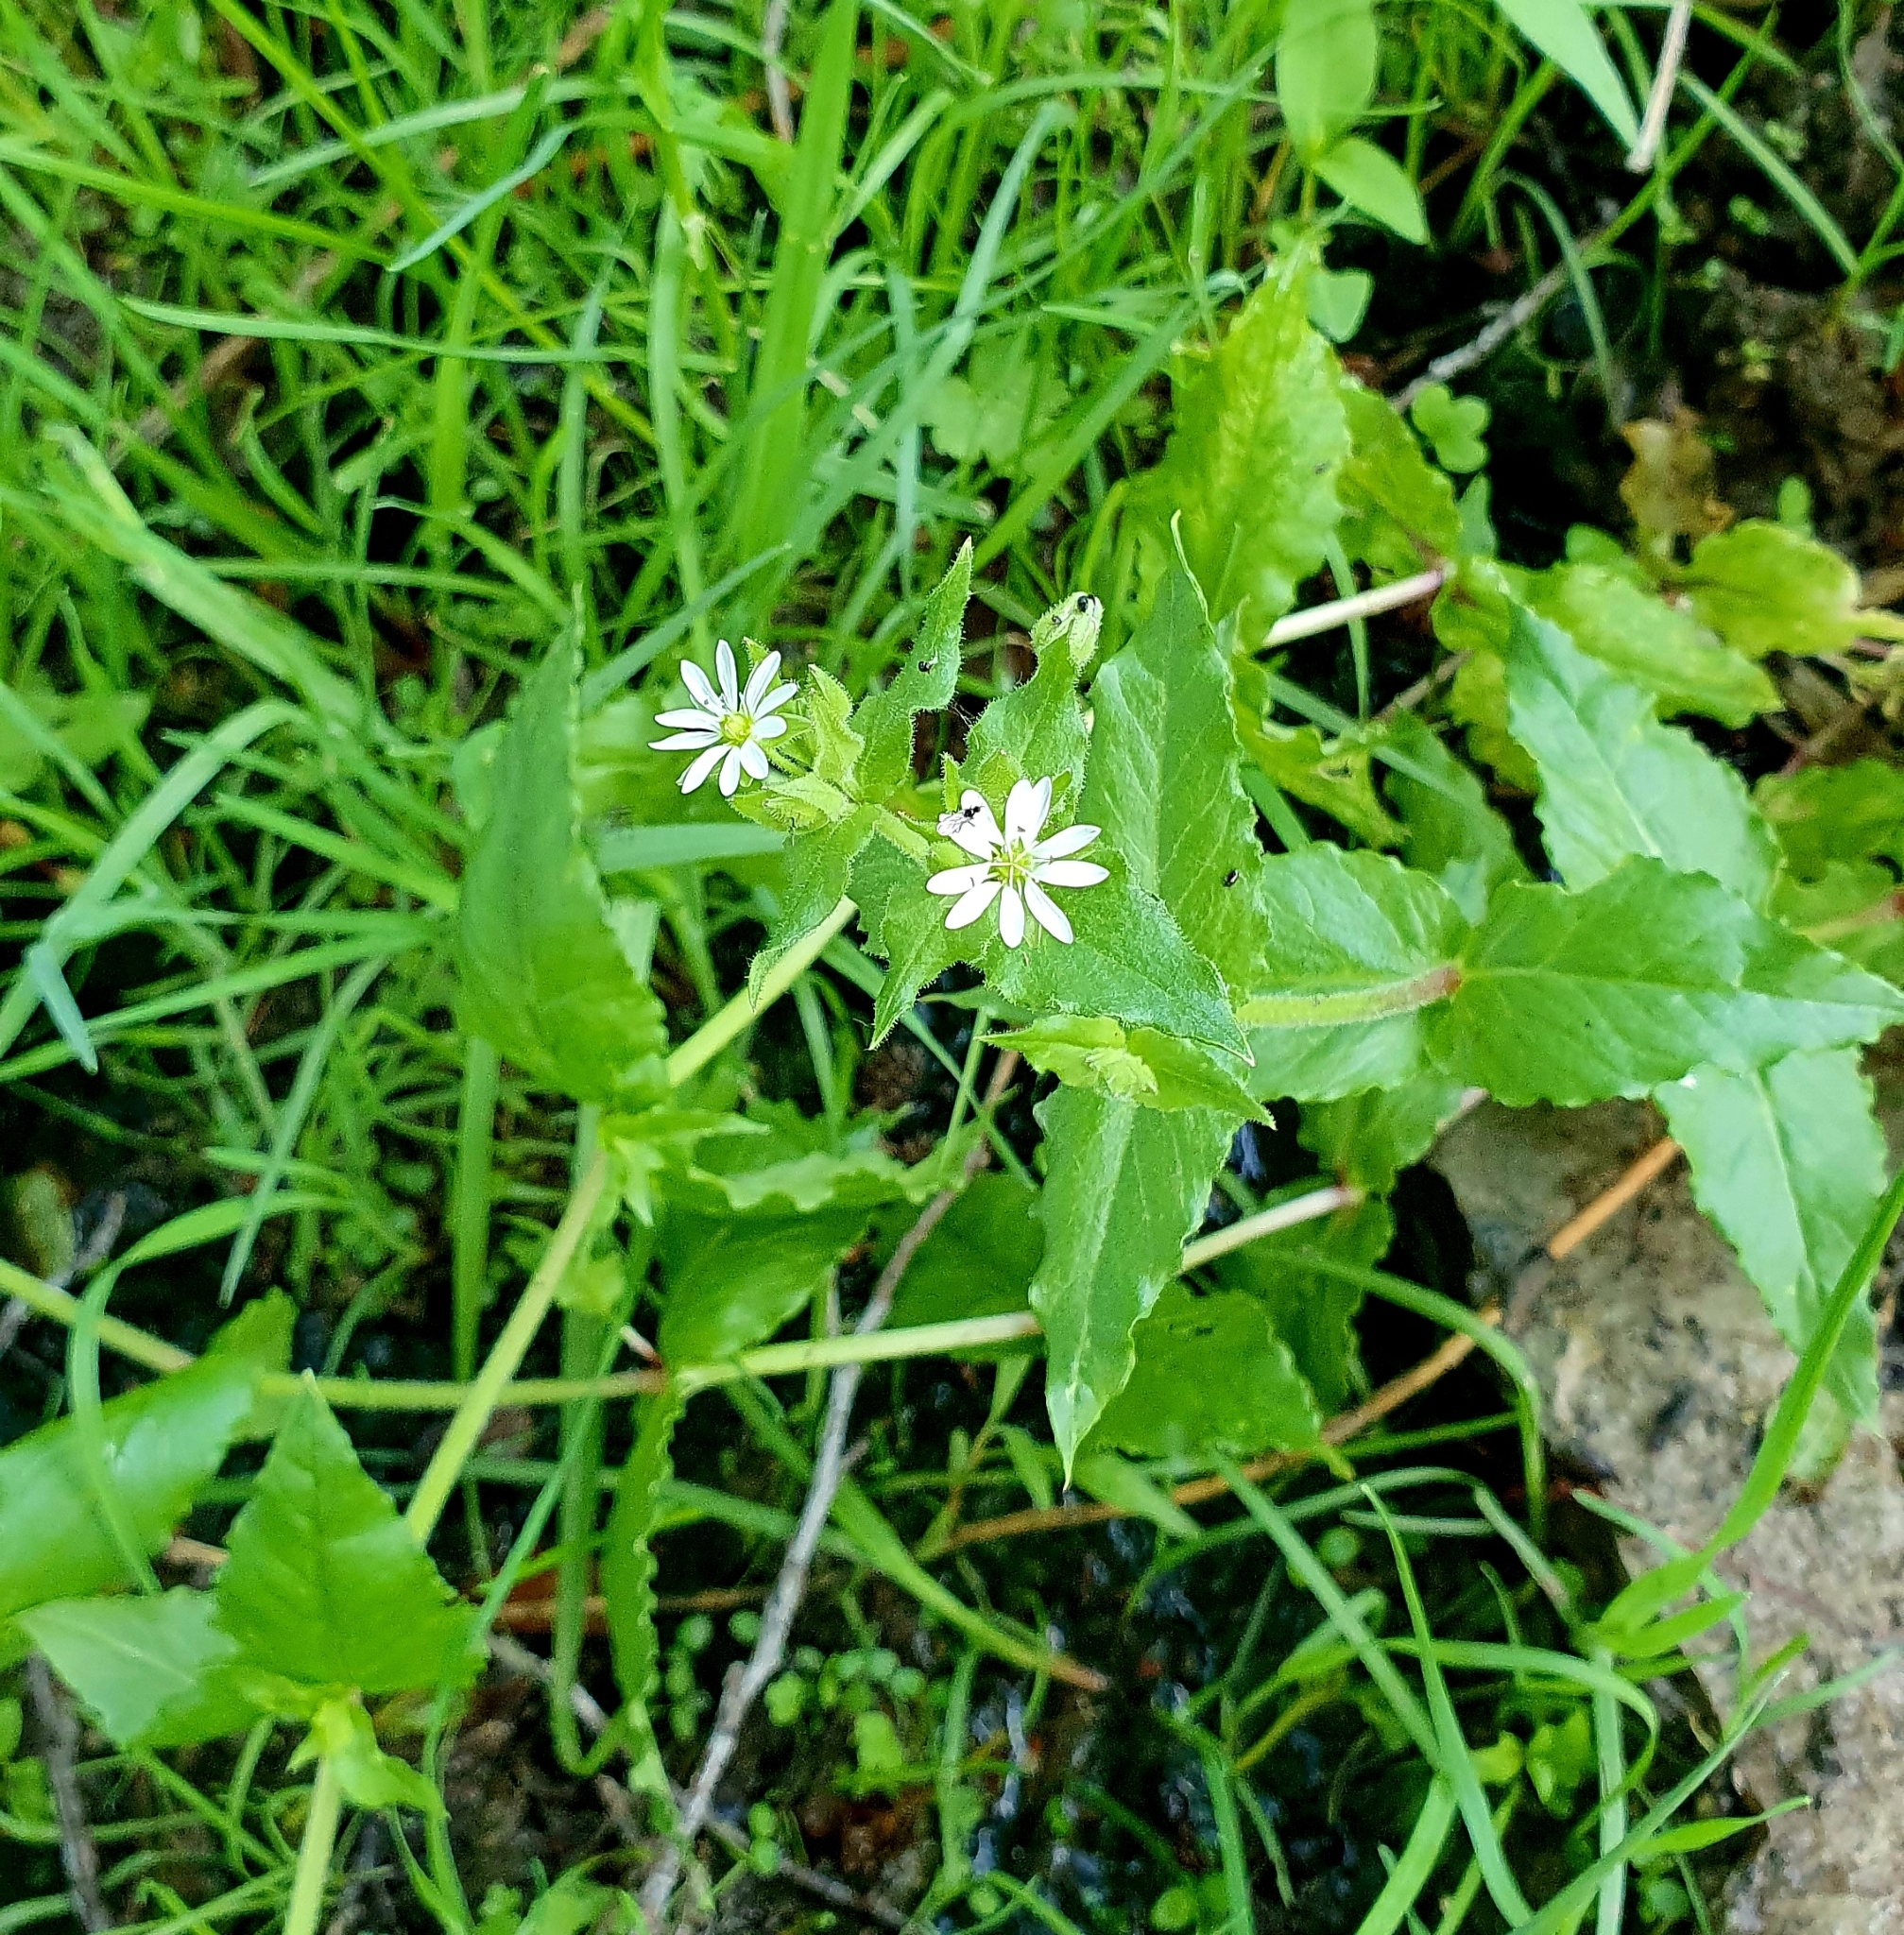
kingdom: Plantae
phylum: Tracheophyta
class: Magnoliopsida
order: Caryophyllales
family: Caryophyllaceae
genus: Stellaria
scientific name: Stellaria aquatica
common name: Water chickweed
